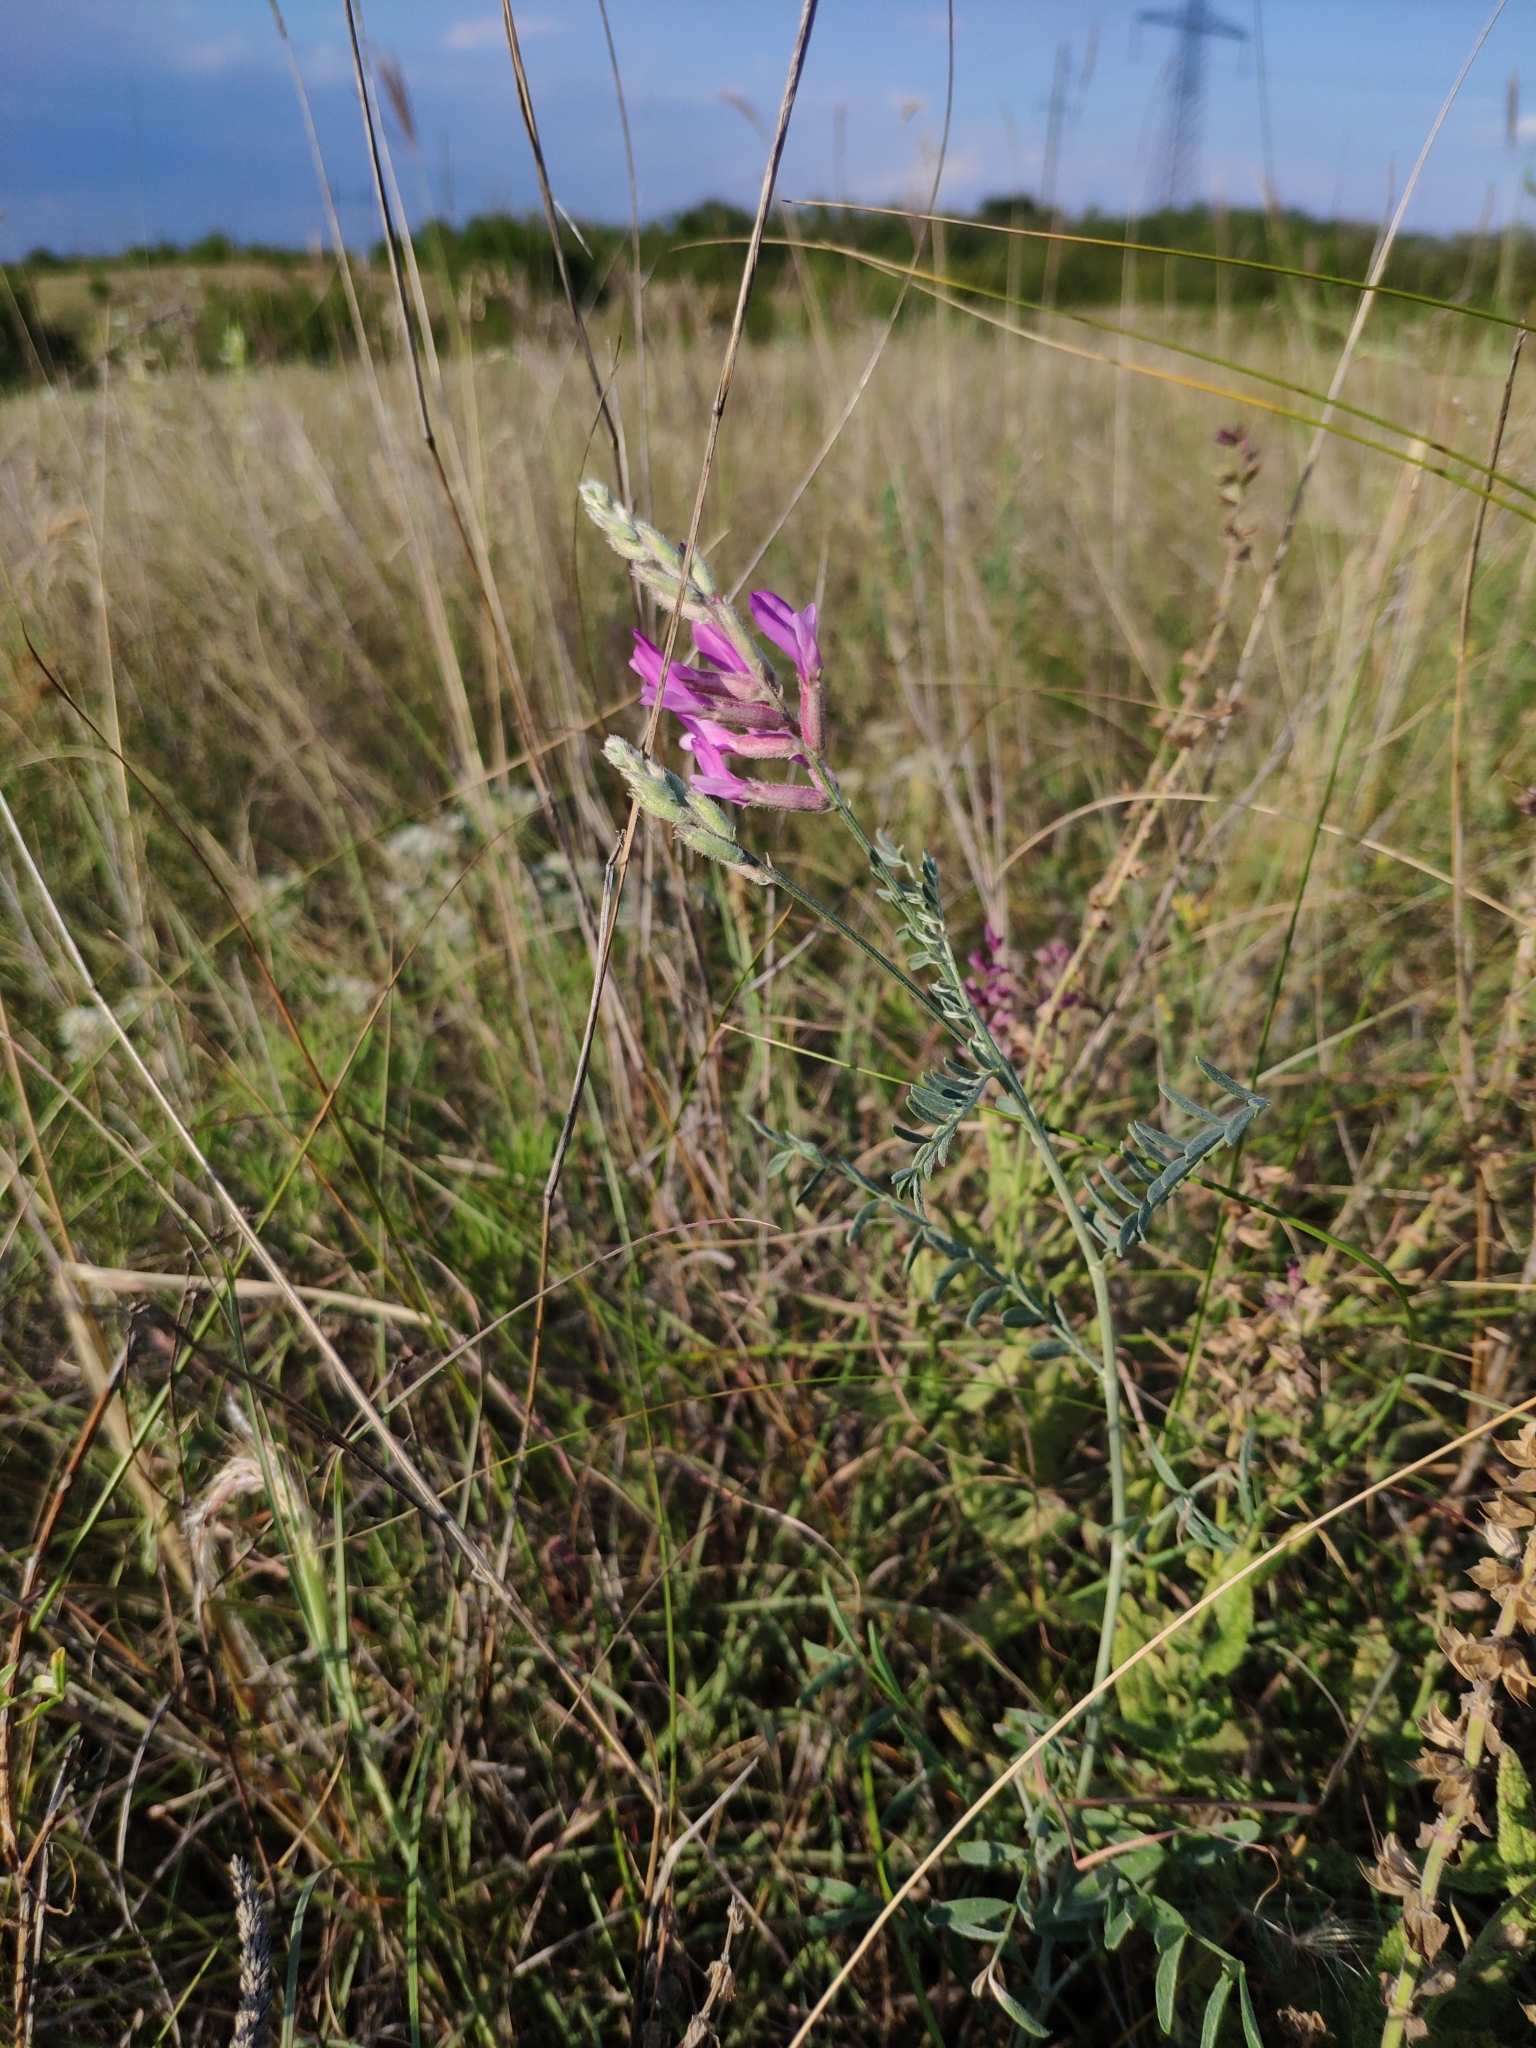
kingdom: Plantae
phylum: Tracheophyta
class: Magnoliopsida
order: Fabales
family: Fabaceae
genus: Astragalus
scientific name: Astragalus varius
